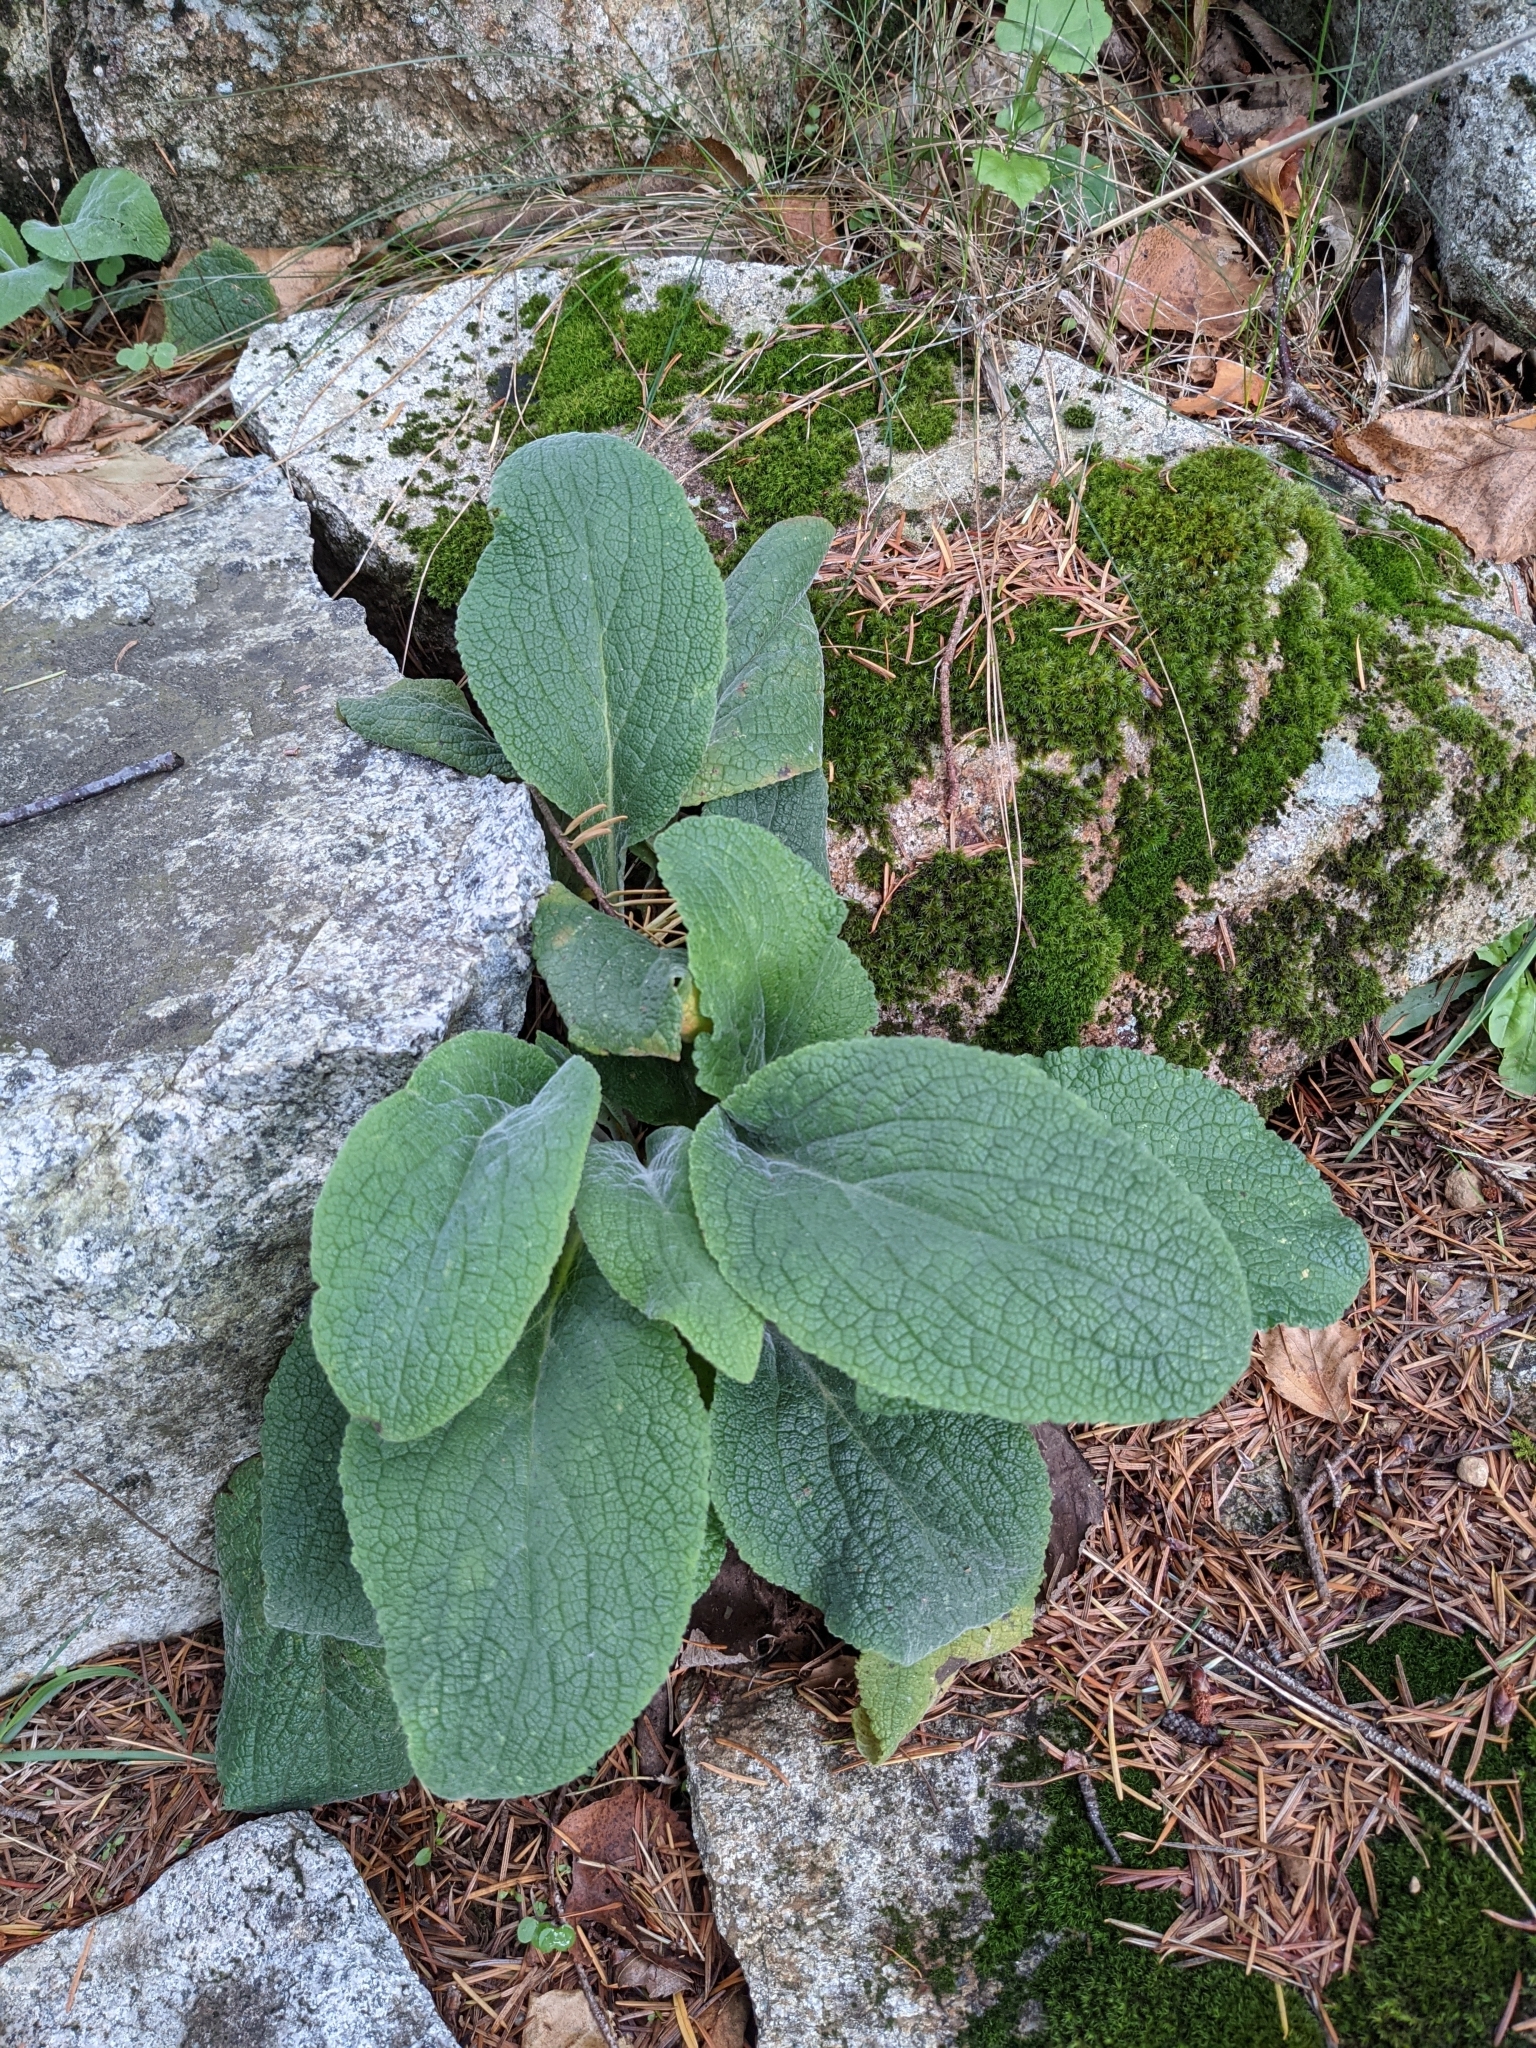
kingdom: Plantae
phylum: Tracheophyta
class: Magnoliopsida
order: Lamiales
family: Plantaginaceae
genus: Digitalis
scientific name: Digitalis purpurea
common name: Foxglove
